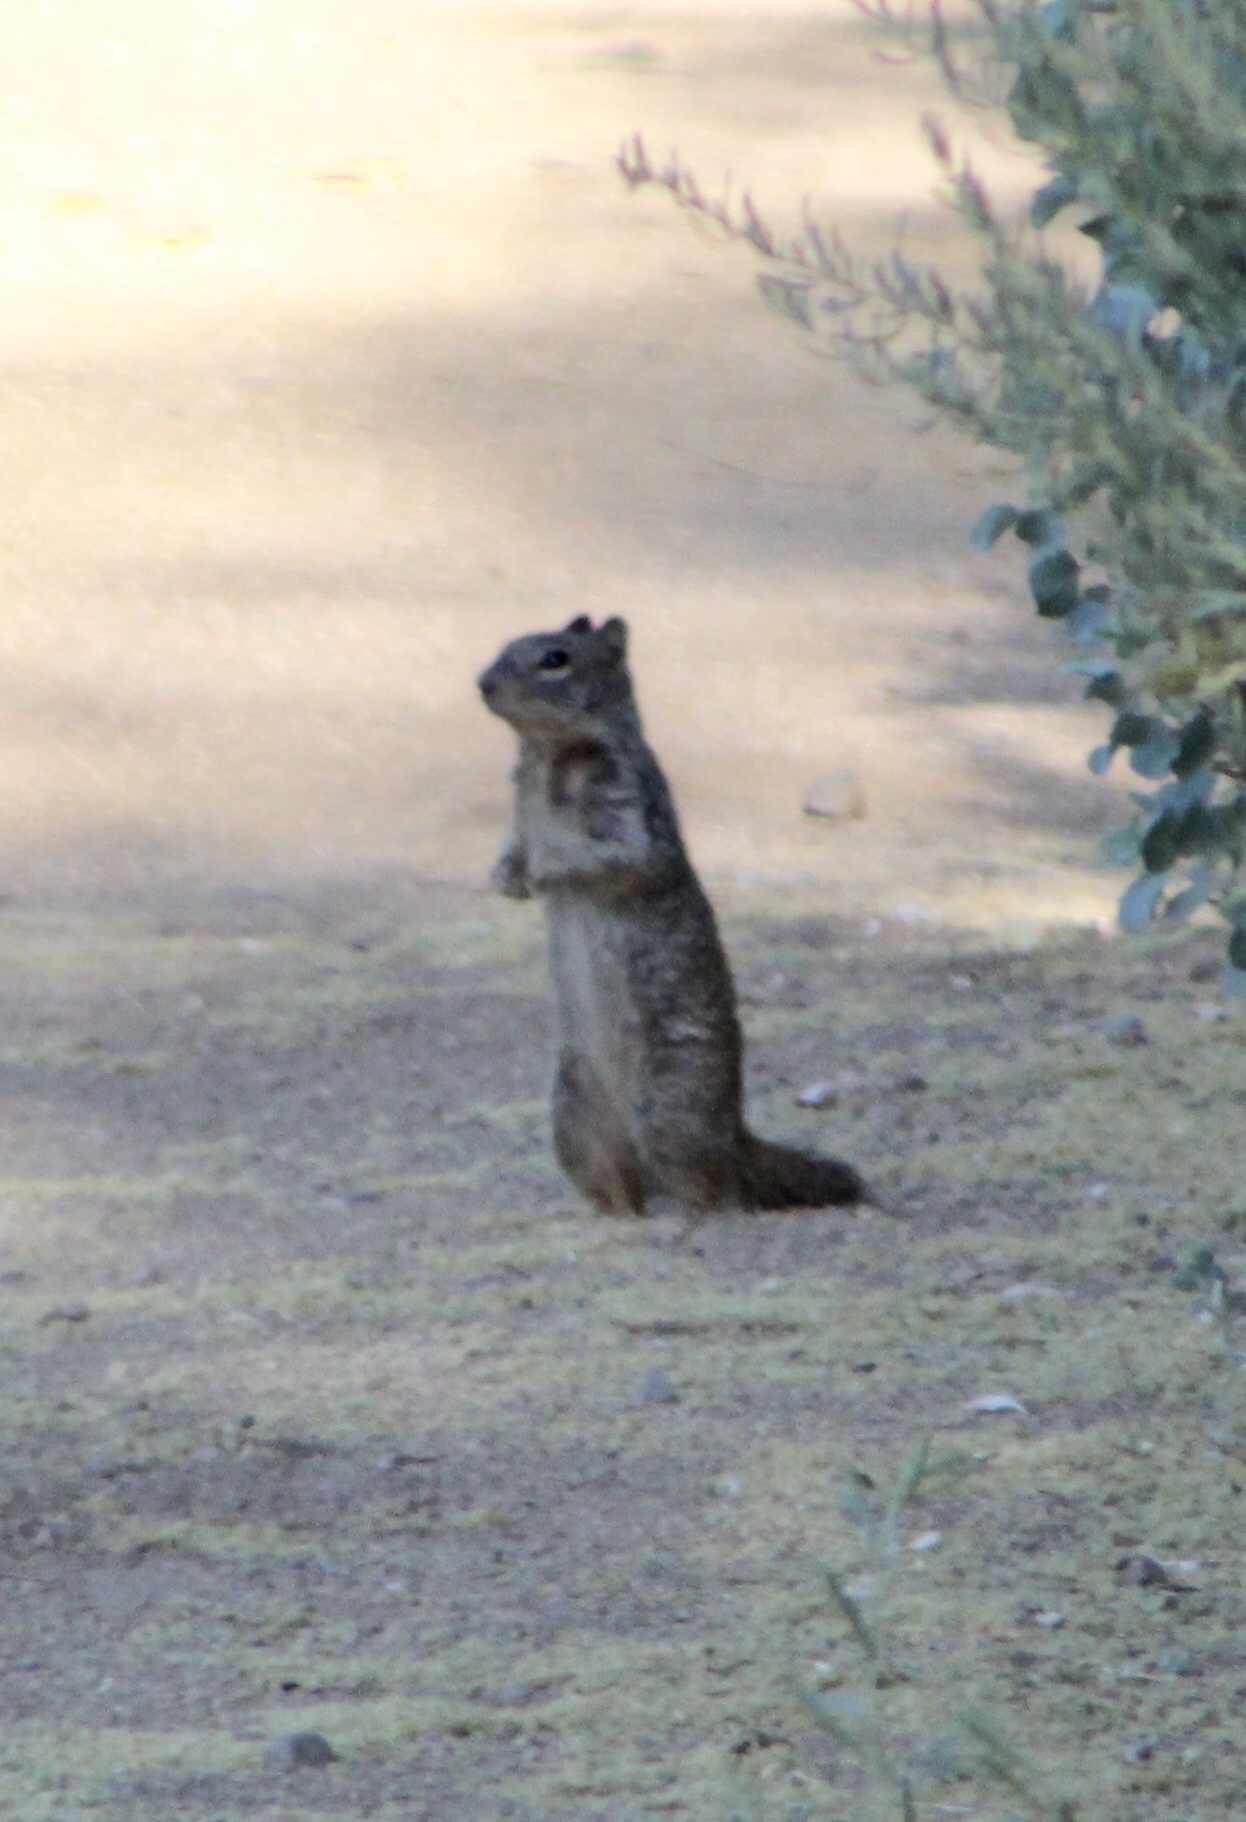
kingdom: Animalia
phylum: Chordata
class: Mammalia
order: Rodentia
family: Sciuridae
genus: Otospermophilus
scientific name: Otospermophilus variegatus
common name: Rock squirrel
